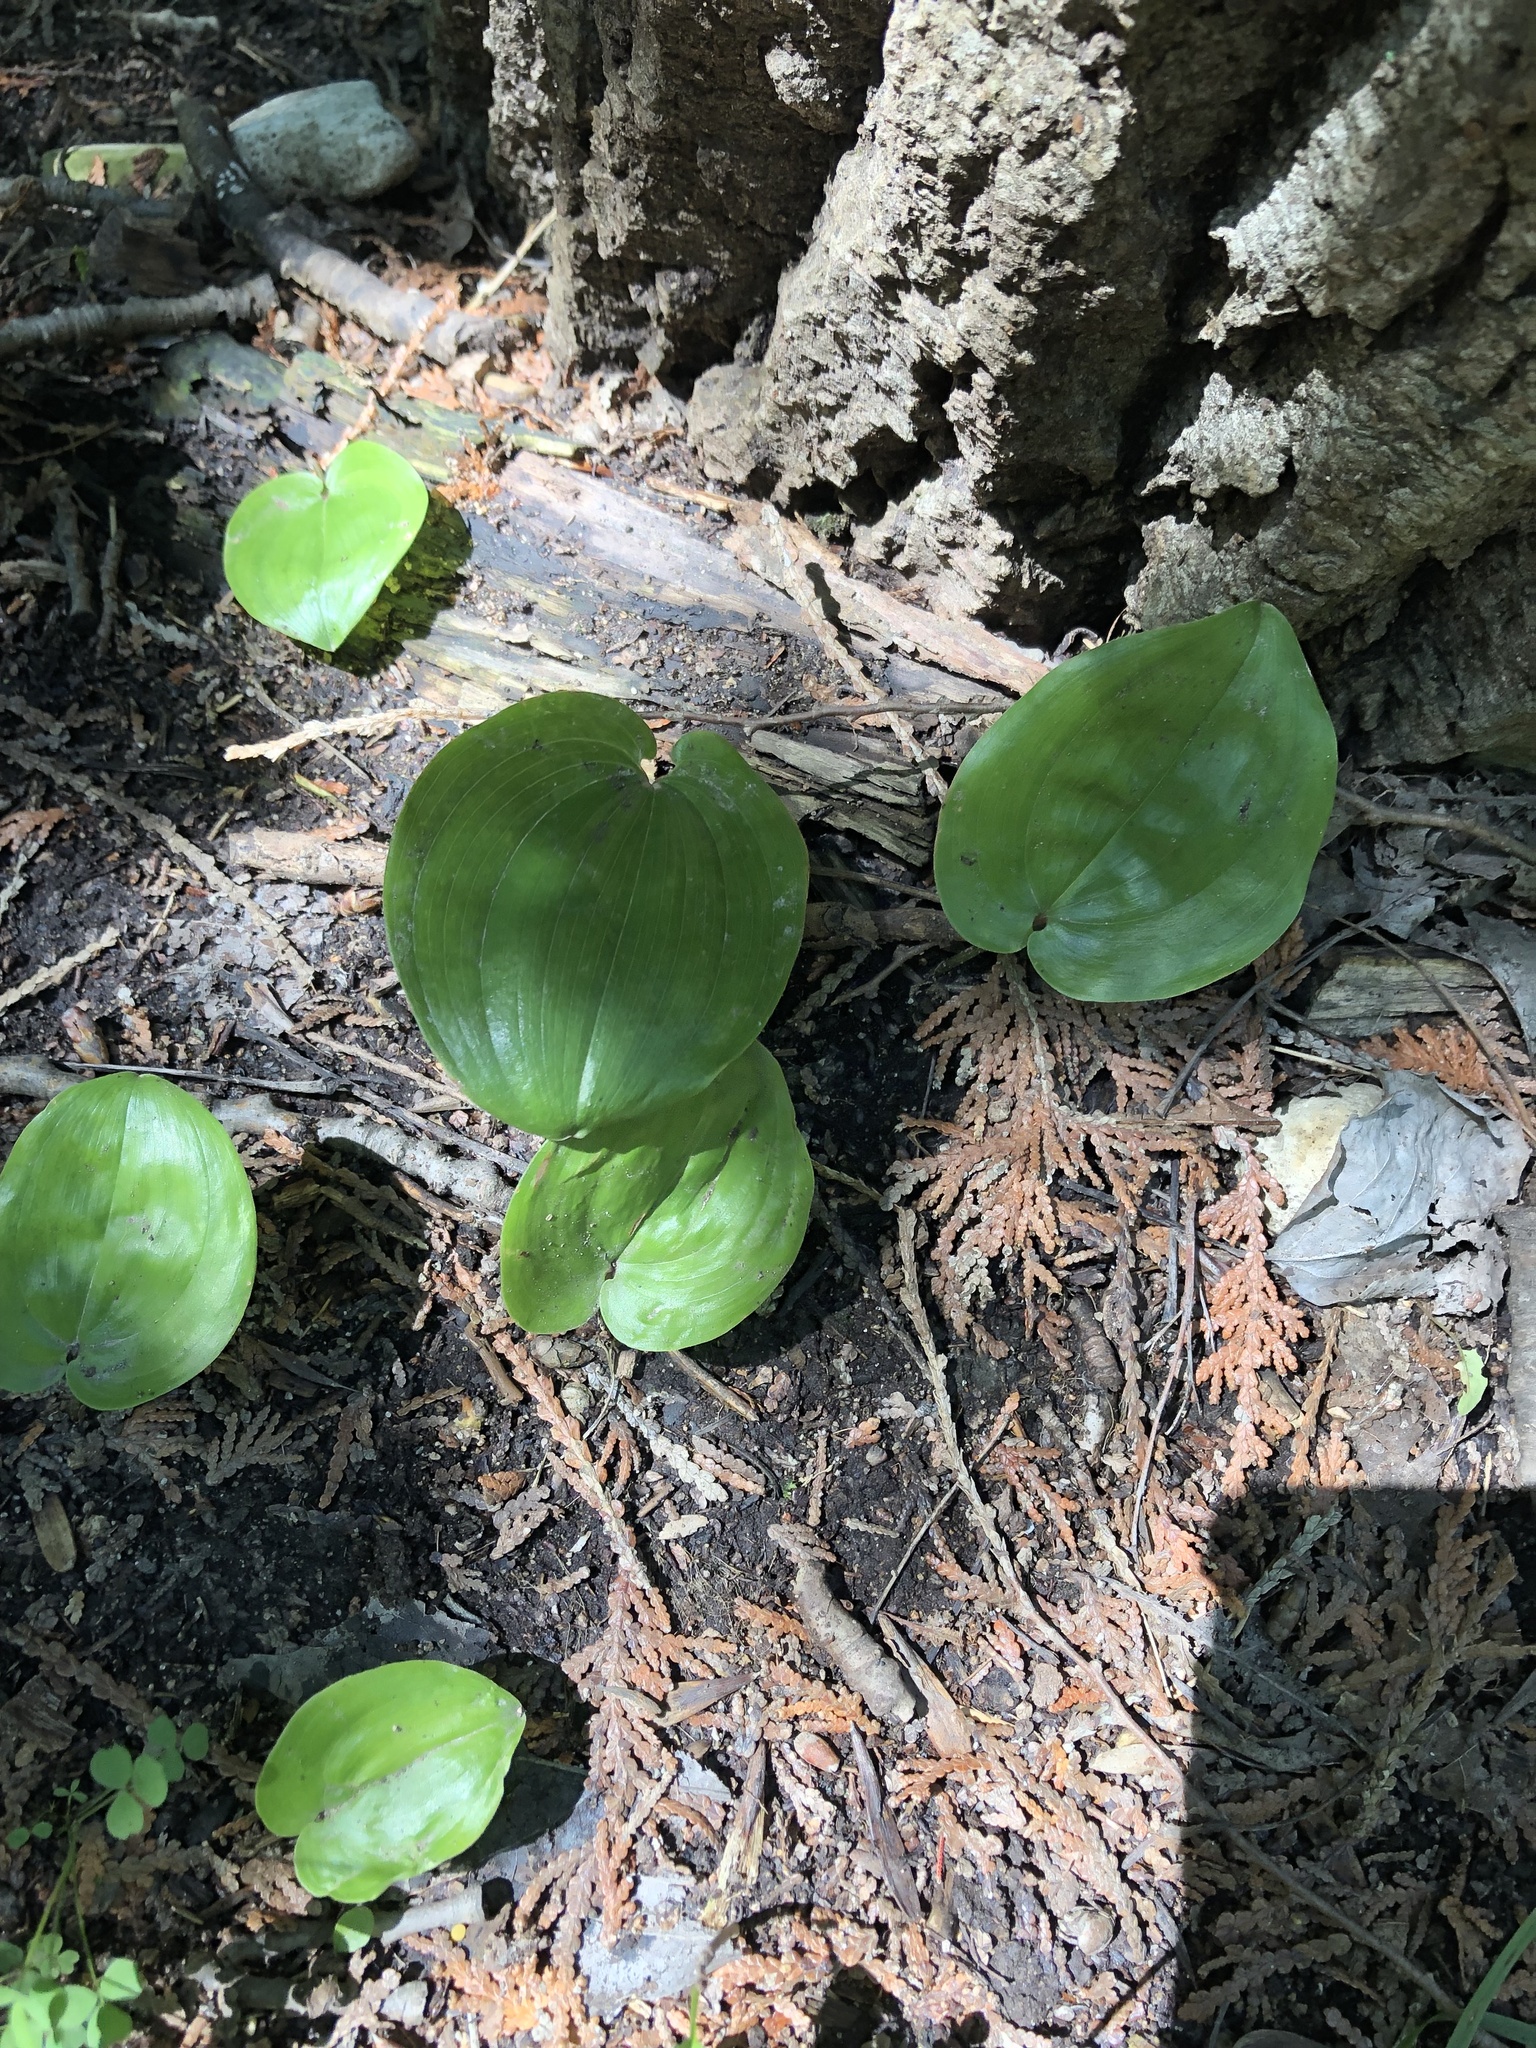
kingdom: Plantae
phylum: Tracheophyta
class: Liliopsida
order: Asparagales
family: Asparagaceae
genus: Maianthemum
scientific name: Maianthemum canadense
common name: False lily-of-the-valley
